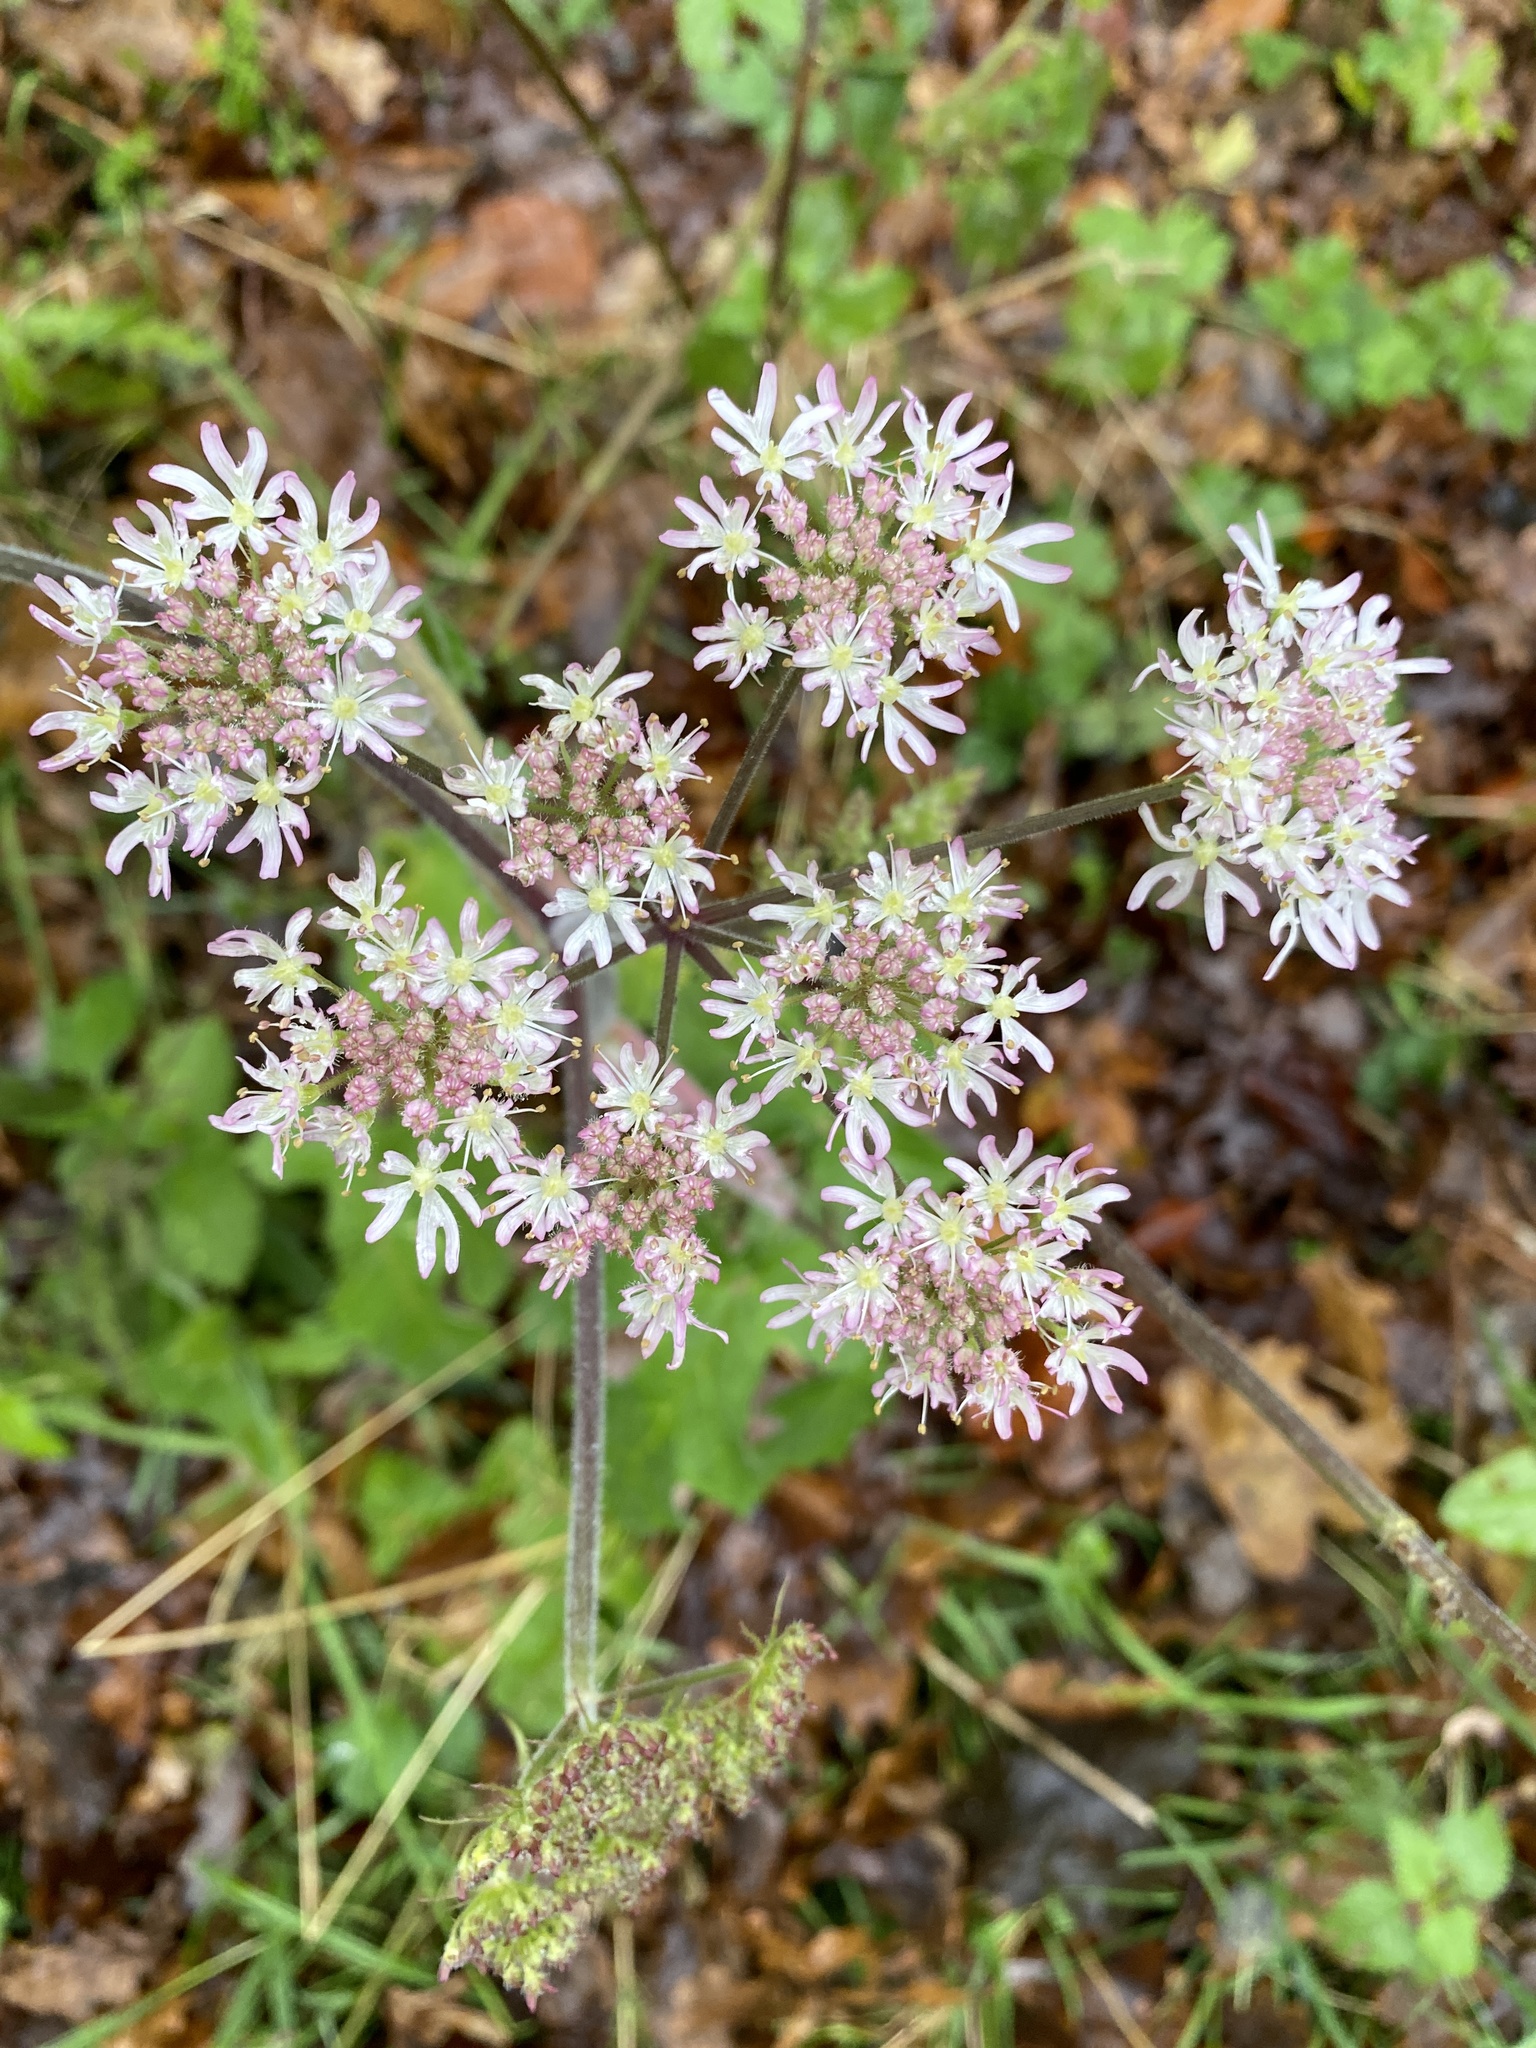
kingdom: Plantae
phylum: Tracheophyta
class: Magnoliopsida
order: Apiales
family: Apiaceae
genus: Heracleum
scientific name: Heracleum sphondylium
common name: Hogweed
